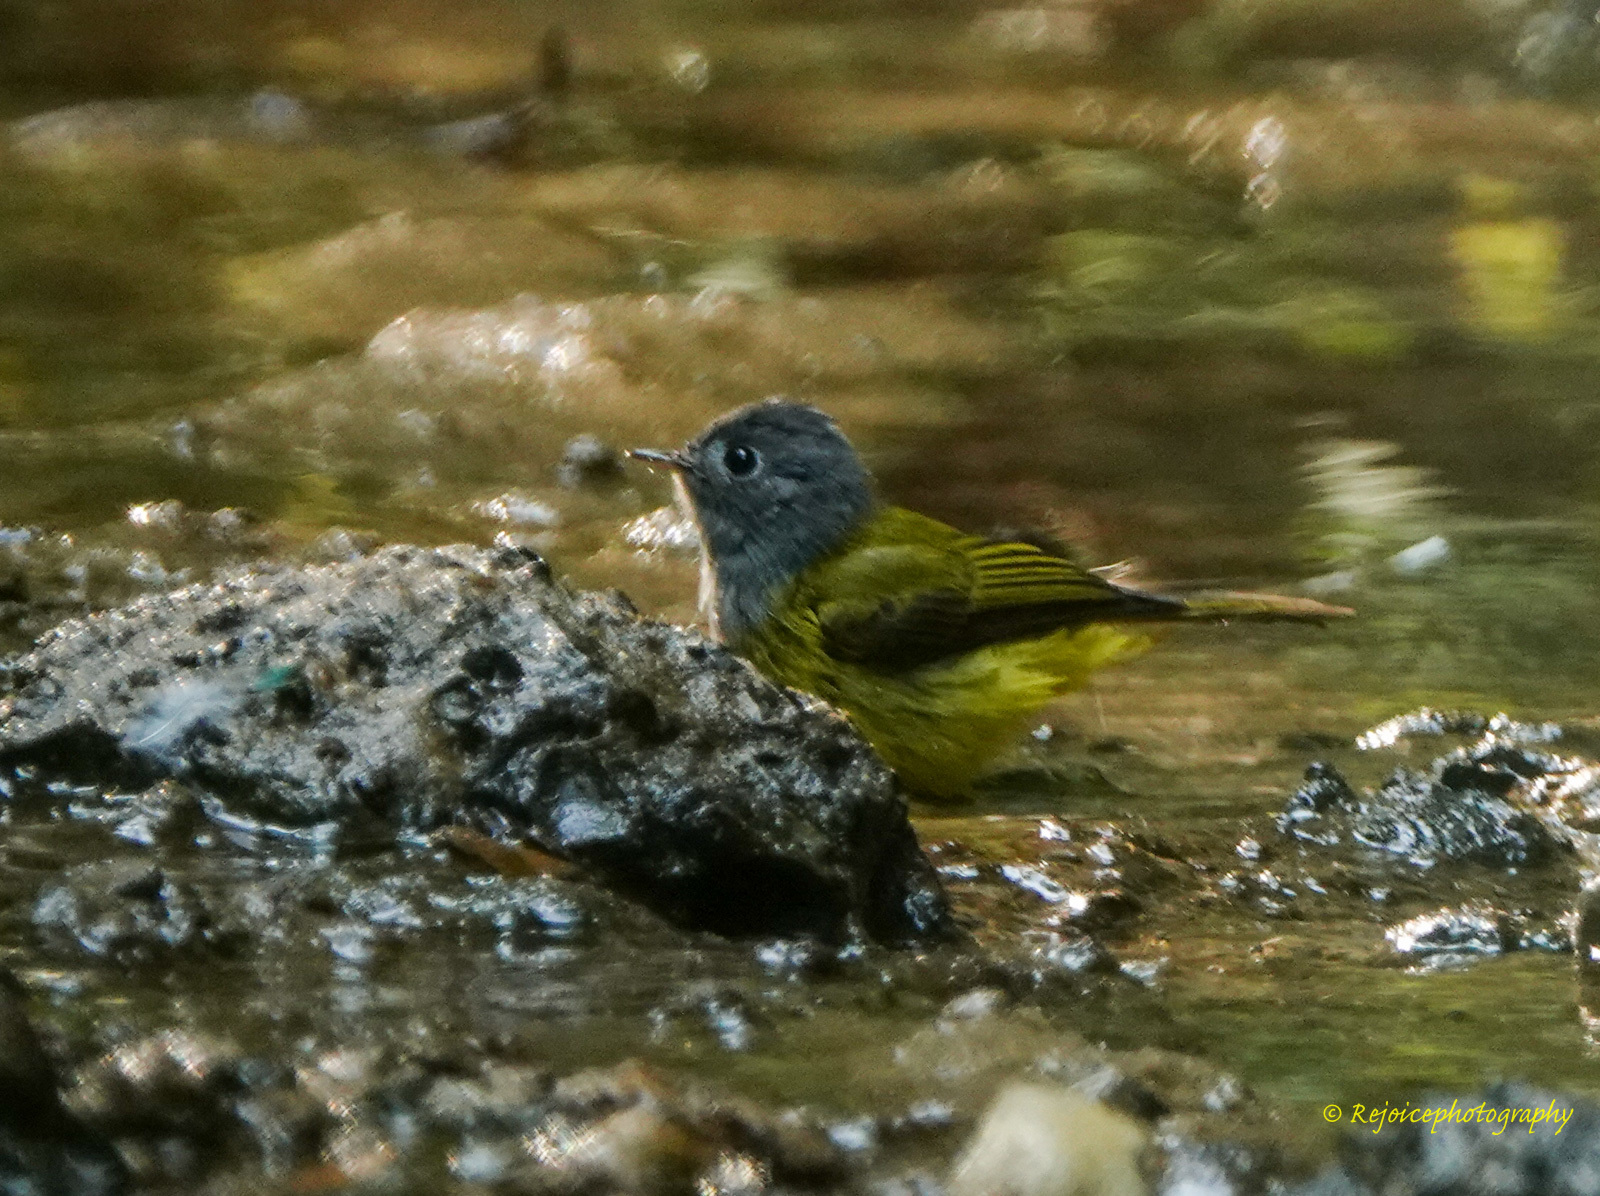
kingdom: Animalia
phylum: Chordata
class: Aves
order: Passeriformes
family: Stenostiridae
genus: Culicicapa
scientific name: Culicicapa ceylonensis
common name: Grey-headed canary-flycatcher
